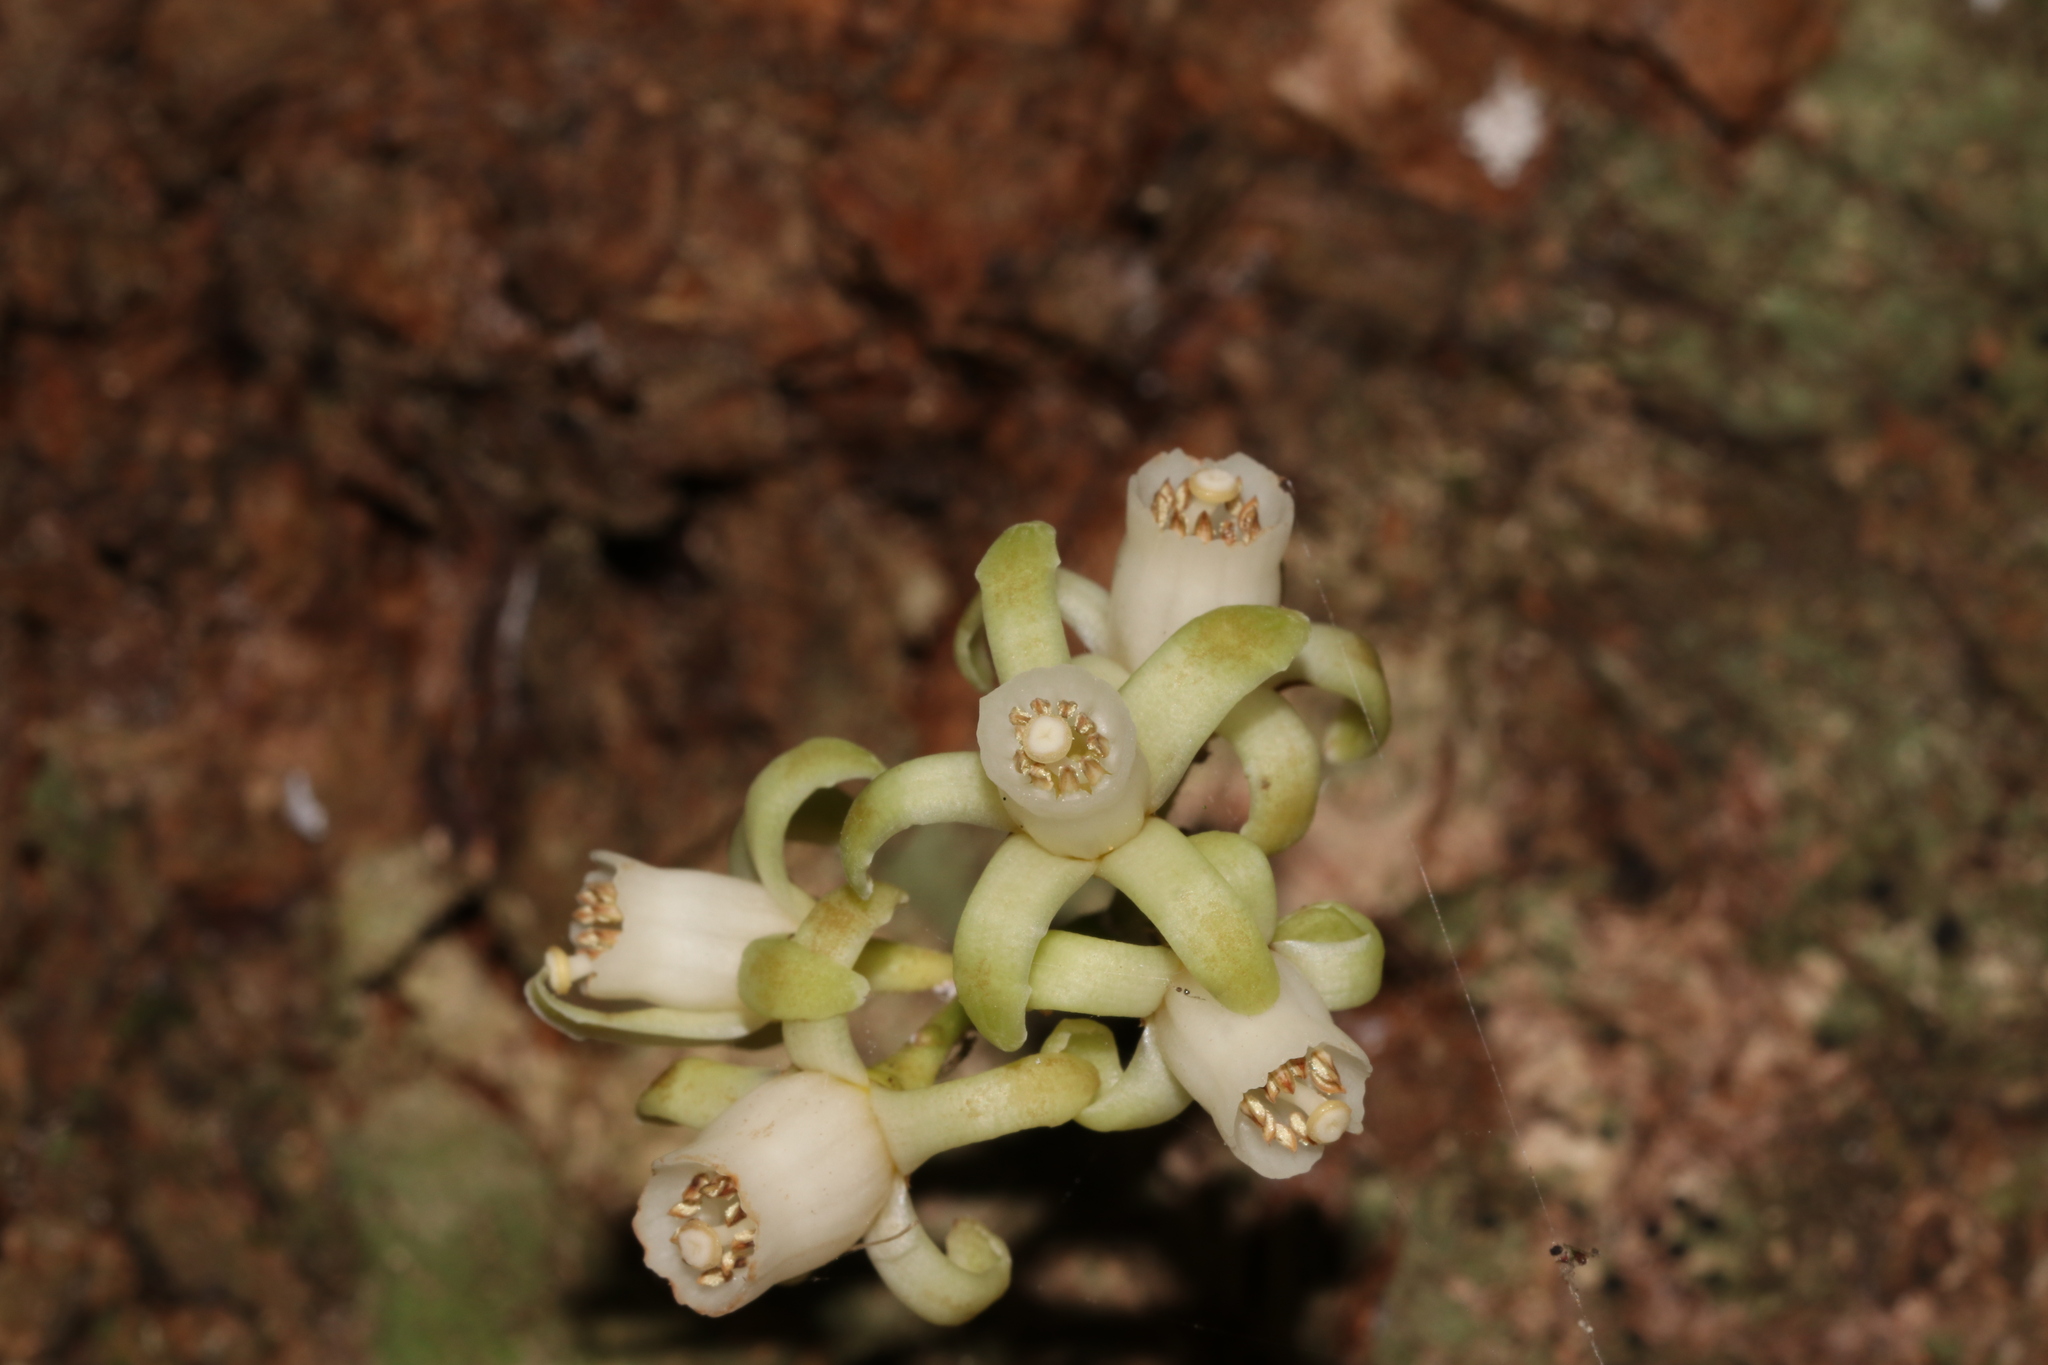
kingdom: Plantae
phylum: Tracheophyta
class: Magnoliopsida
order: Sapindales
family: Meliaceae
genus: Didymocheton
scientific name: Didymocheton spectabilis
